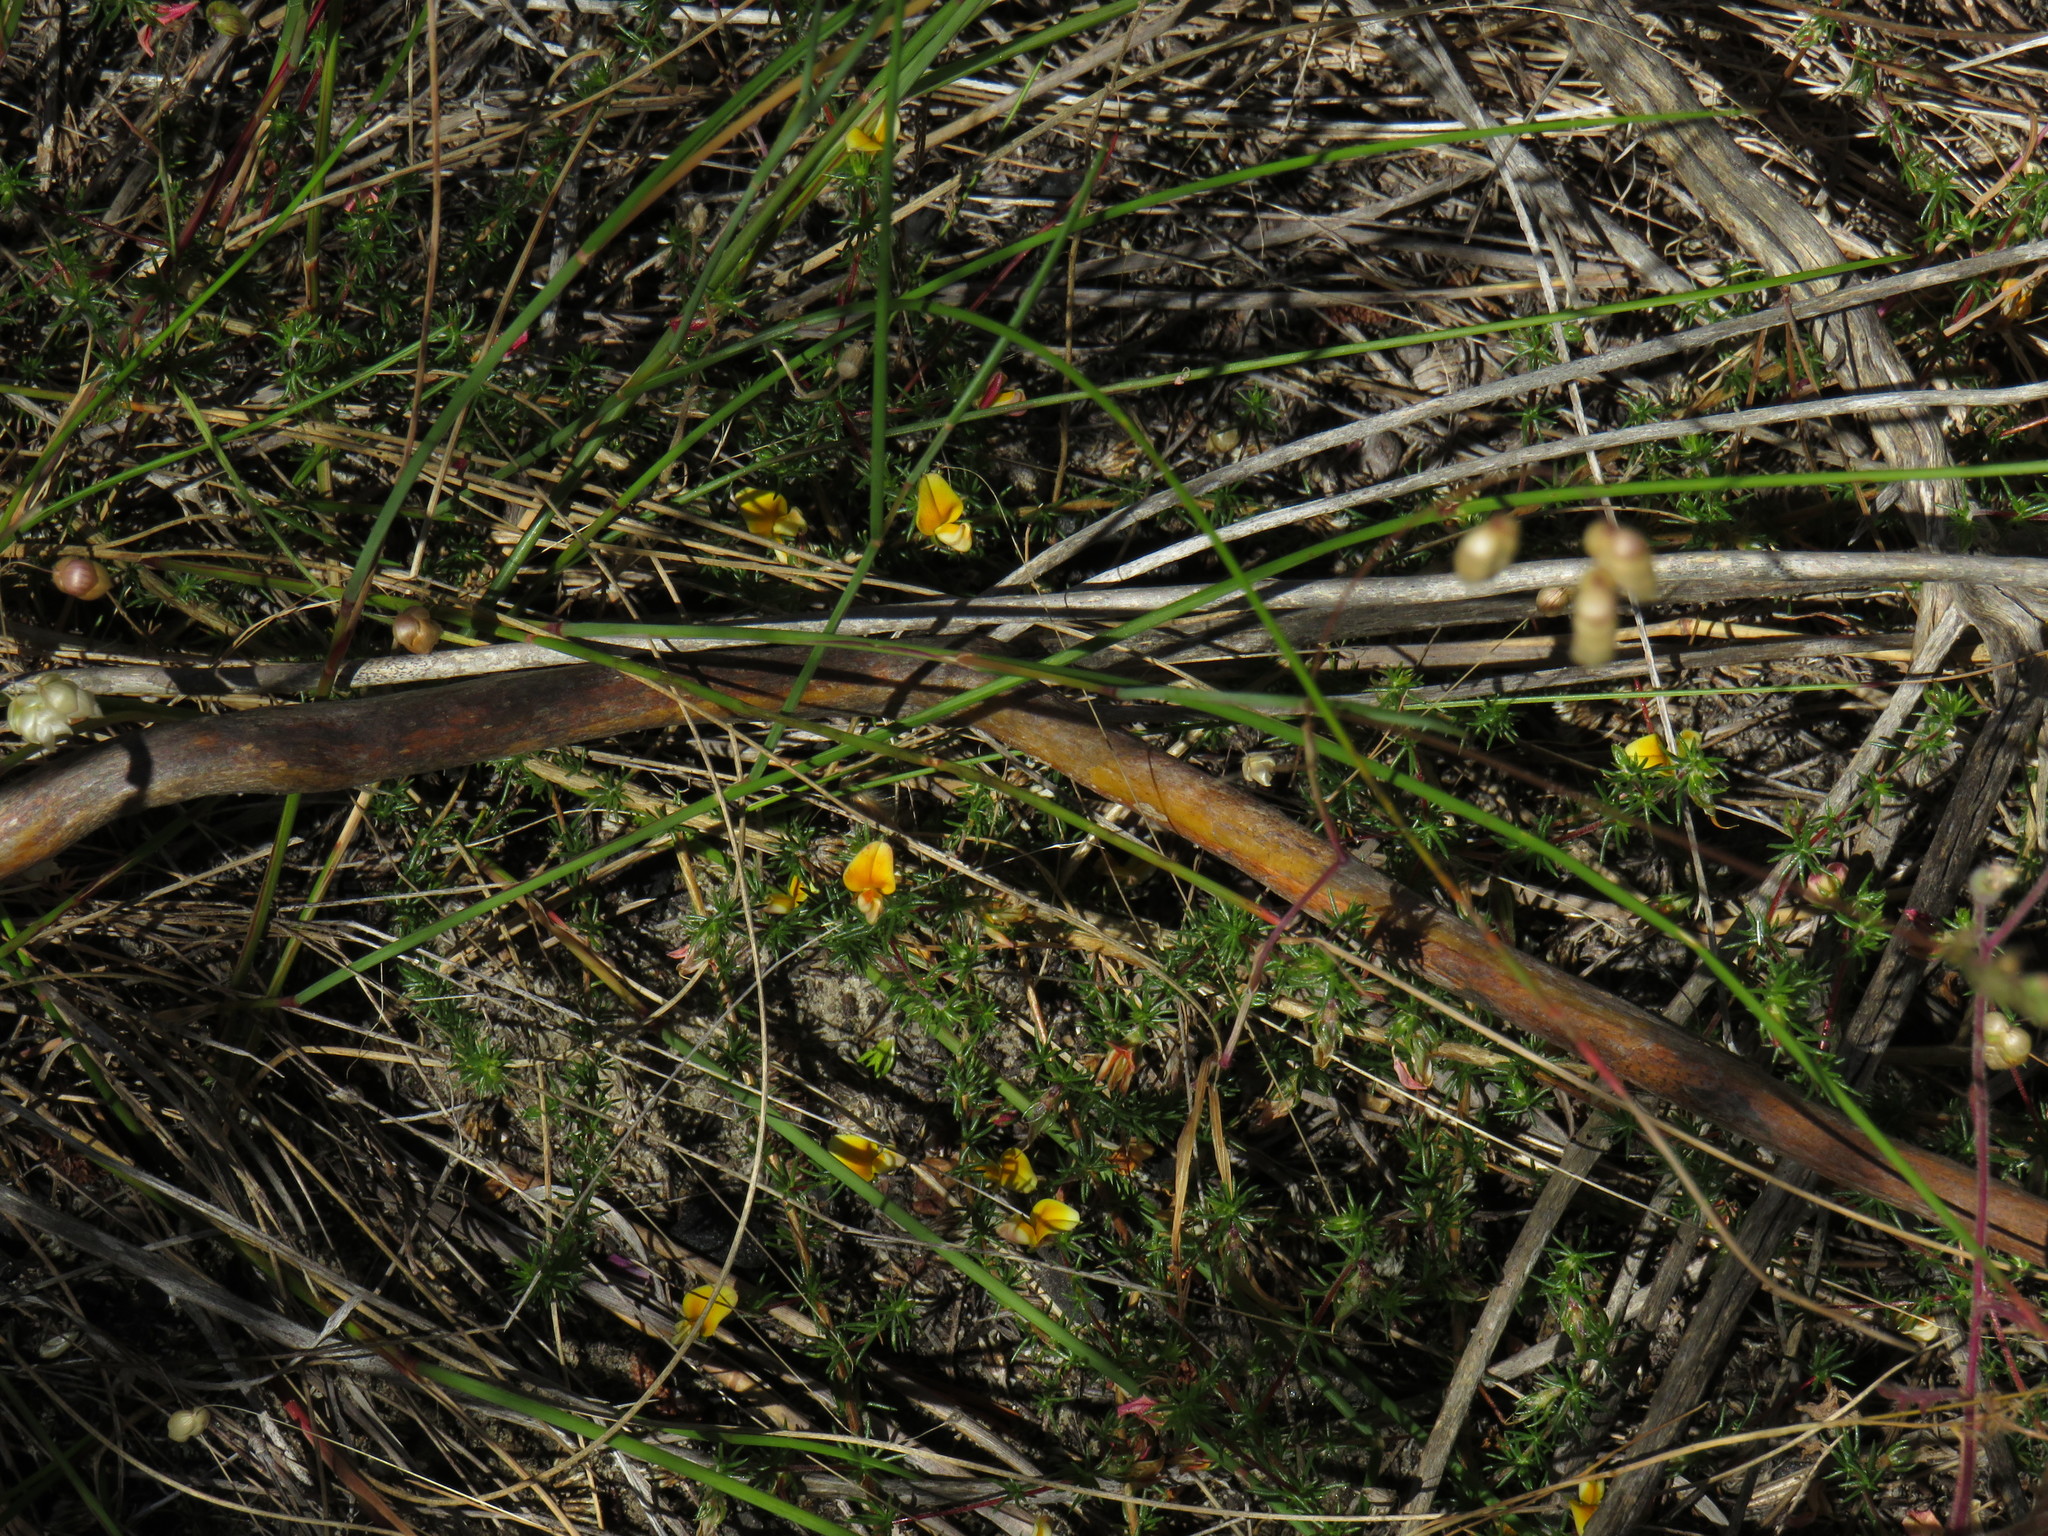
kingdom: Plantae
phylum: Tracheophyta
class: Magnoliopsida
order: Fabales
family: Fabaceae
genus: Aspalathus
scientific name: Aspalathus retroflexa
